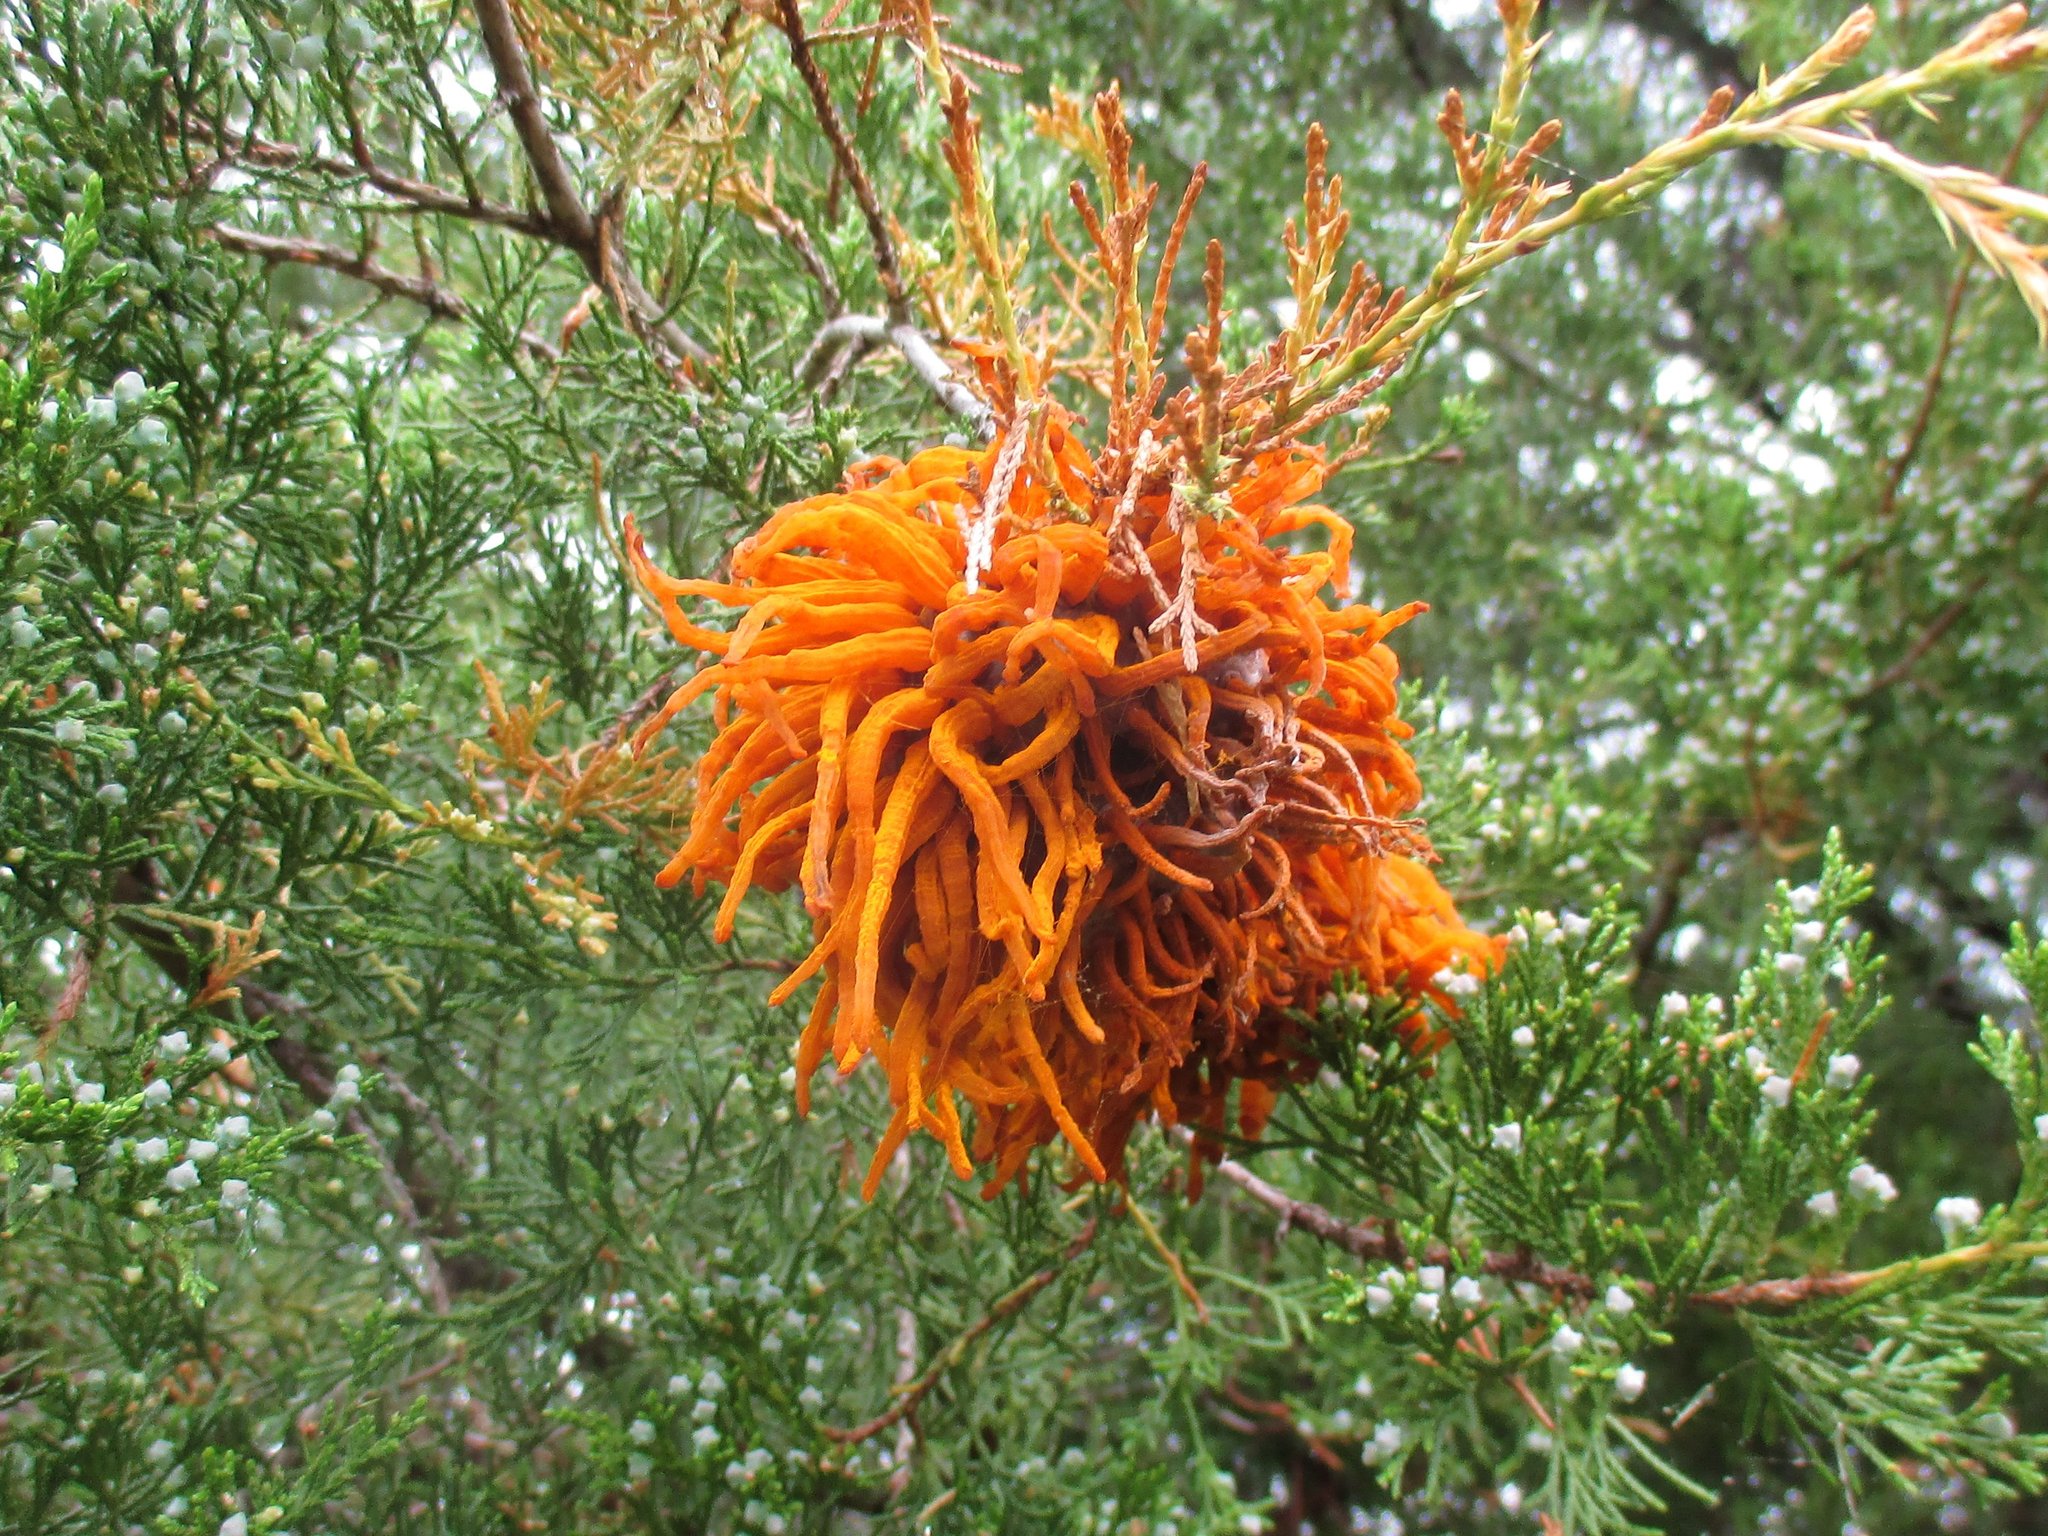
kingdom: Fungi
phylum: Basidiomycota
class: Pucciniomycetes
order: Pucciniales
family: Gymnosporangiaceae
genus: Gymnosporangium
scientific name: Gymnosporangium juniperi-virginianae
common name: Juniper-apple rust
